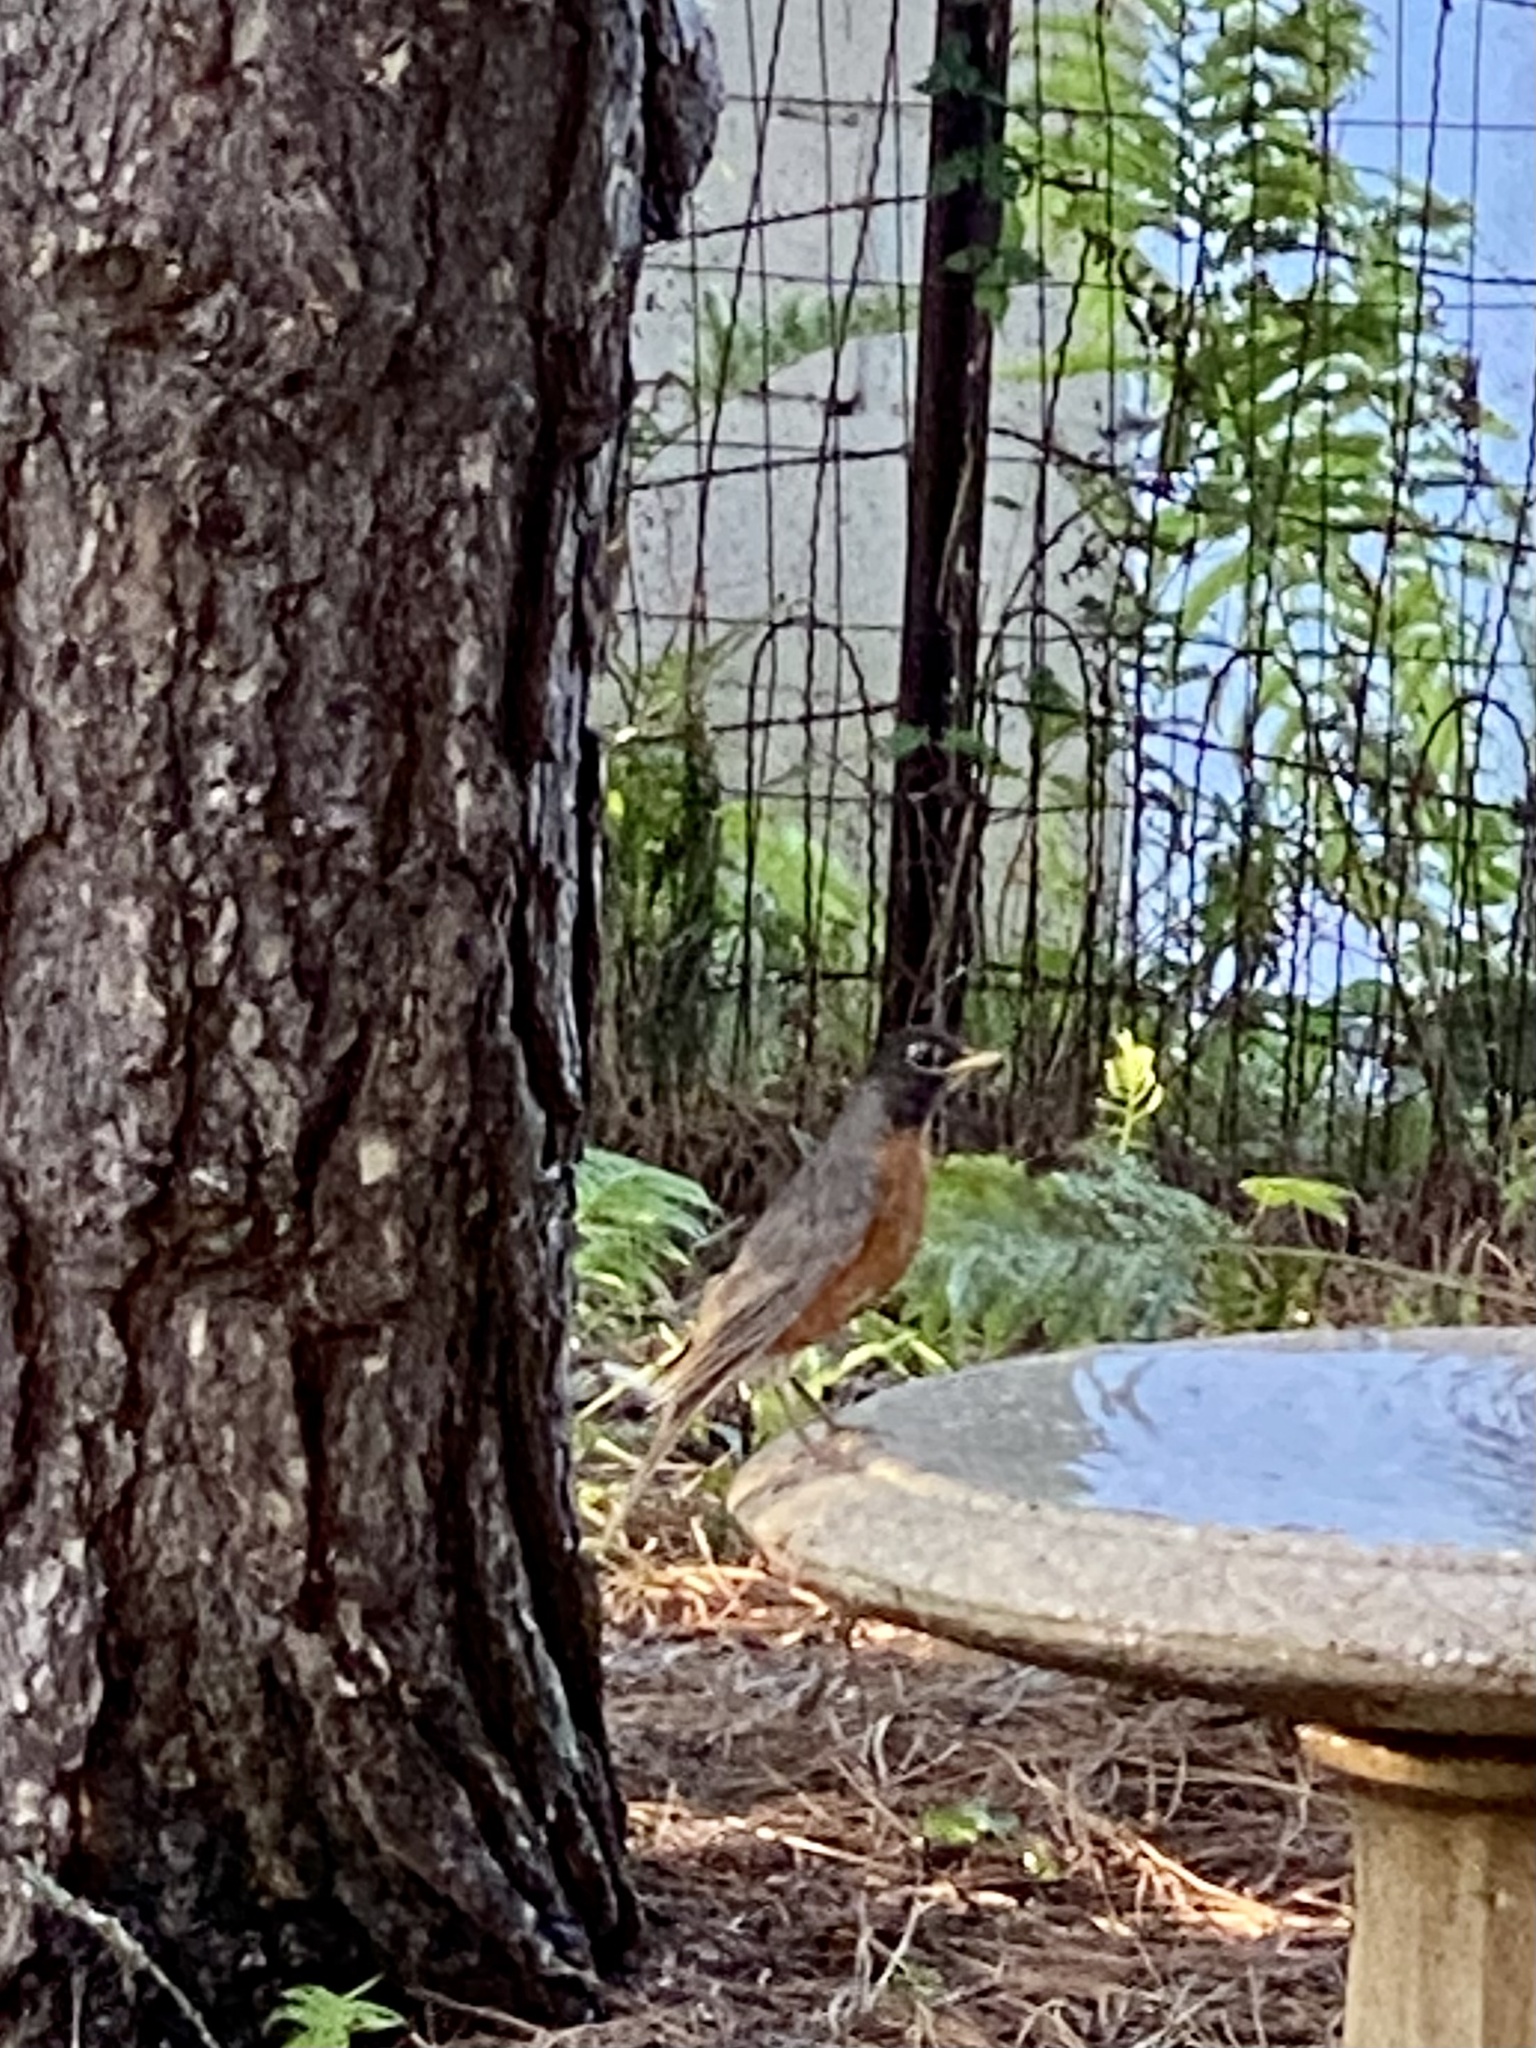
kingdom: Animalia
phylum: Chordata
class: Aves
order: Passeriformes
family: Turdidae
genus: Turdus
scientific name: Turdus migratorius
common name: American robin
